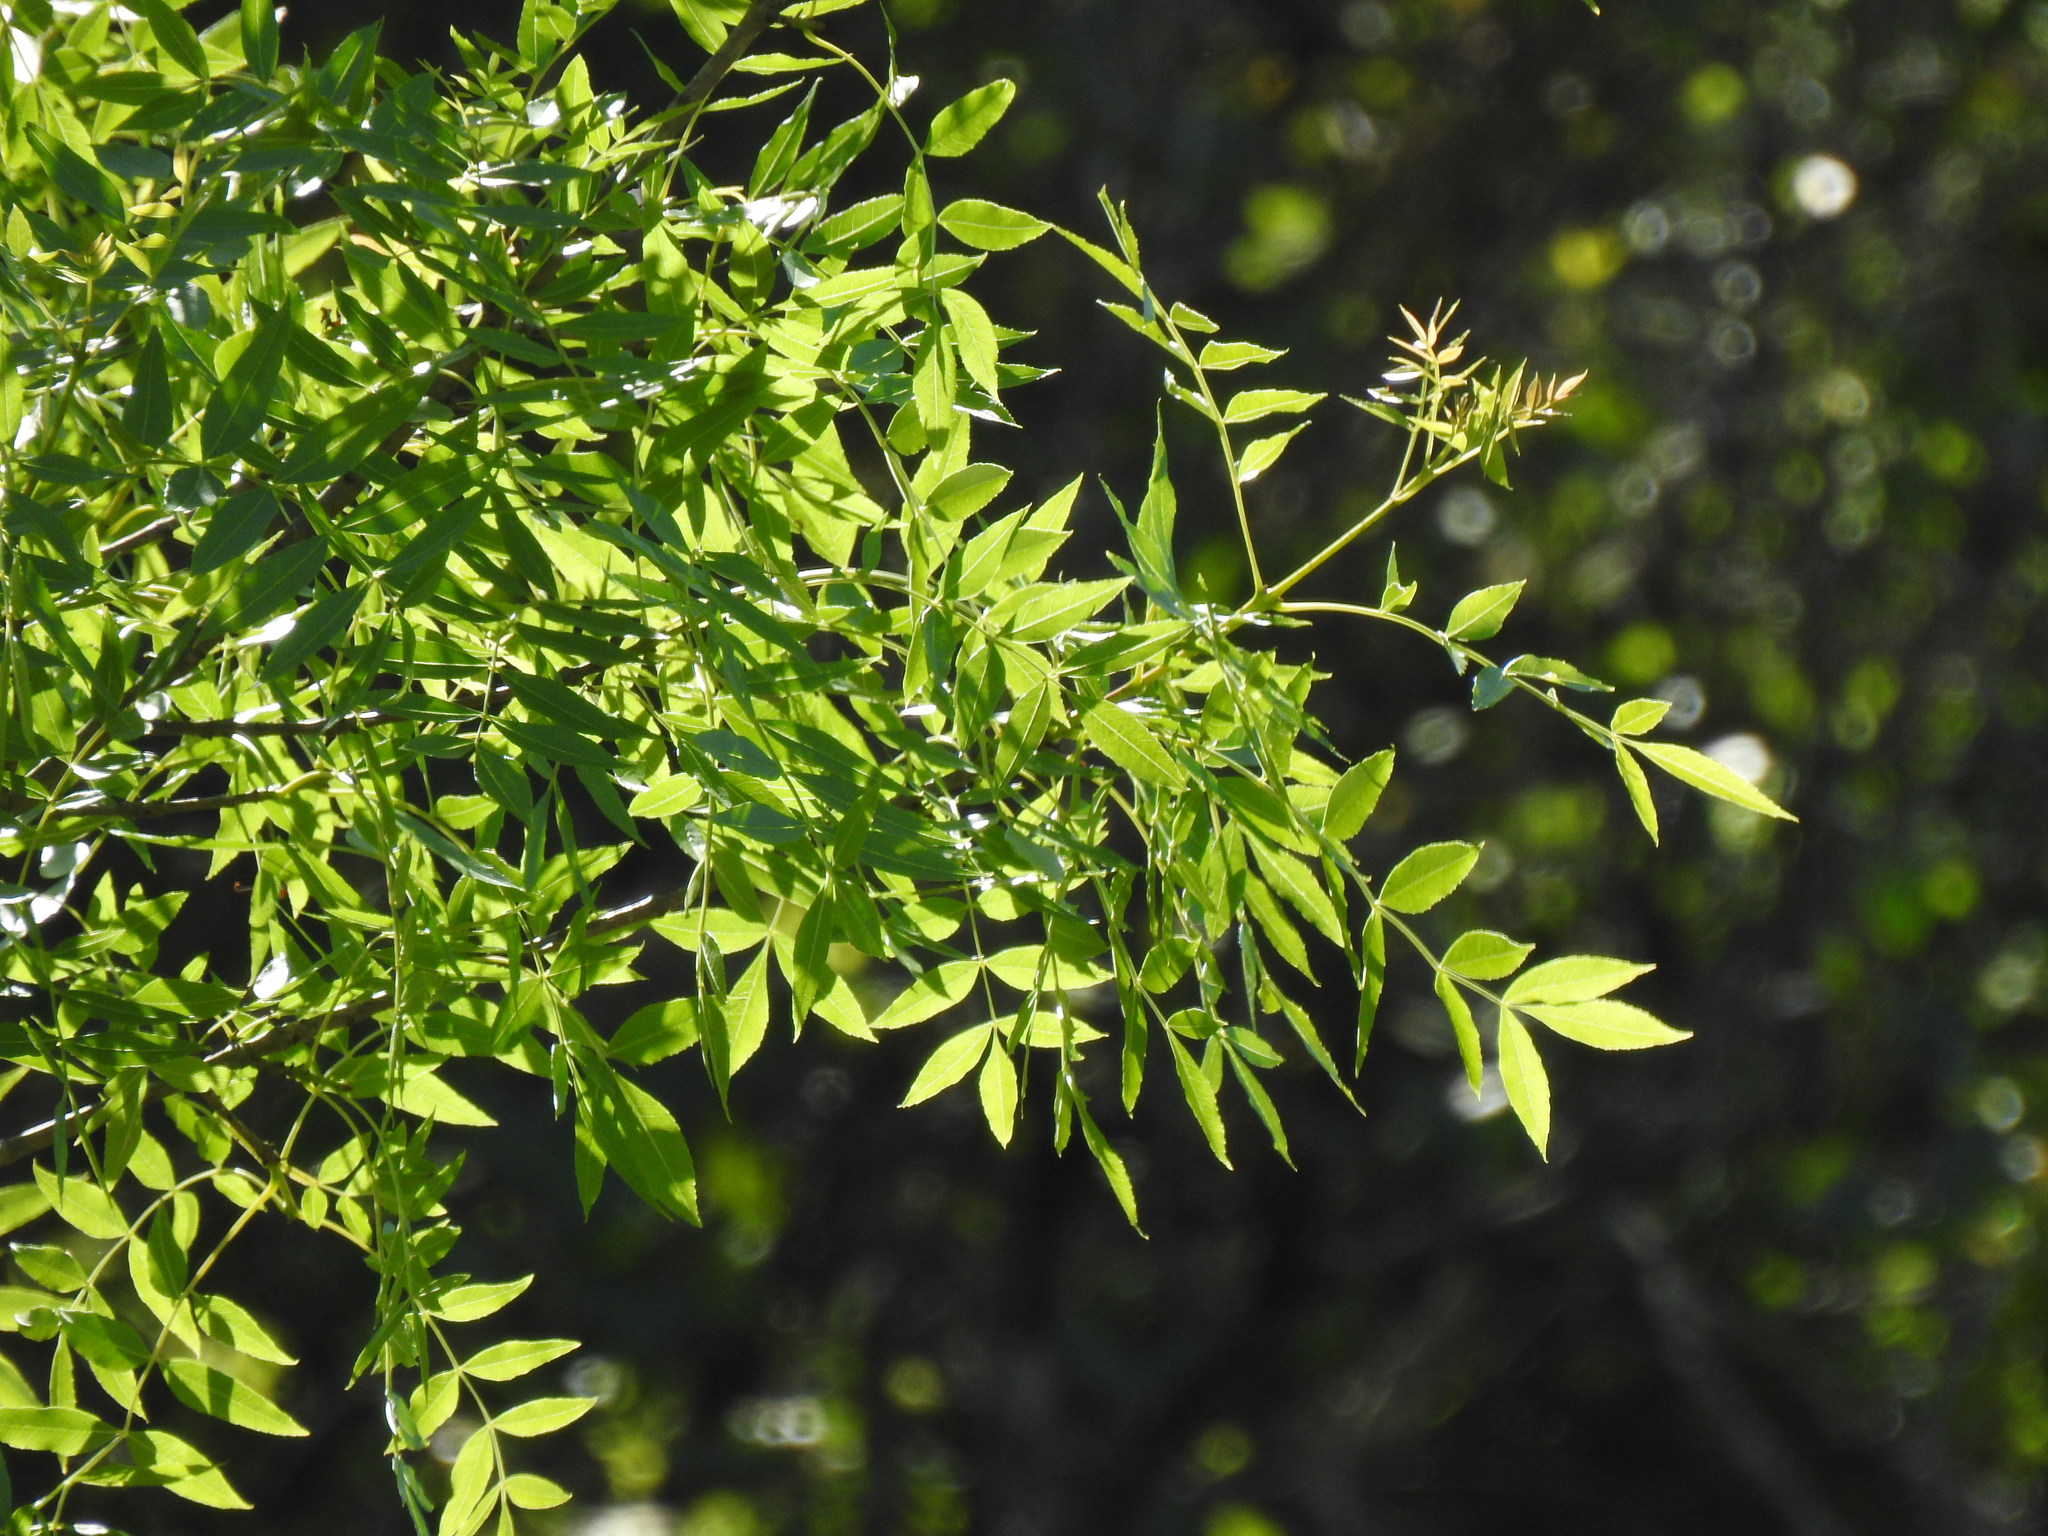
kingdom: Plantae
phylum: Tracheophyta
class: Magnoliopsida
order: Lamiales
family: Oleaceae
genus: Fraxinus
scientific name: Fraxinus angustifolia
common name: Narrow-leafed ash
